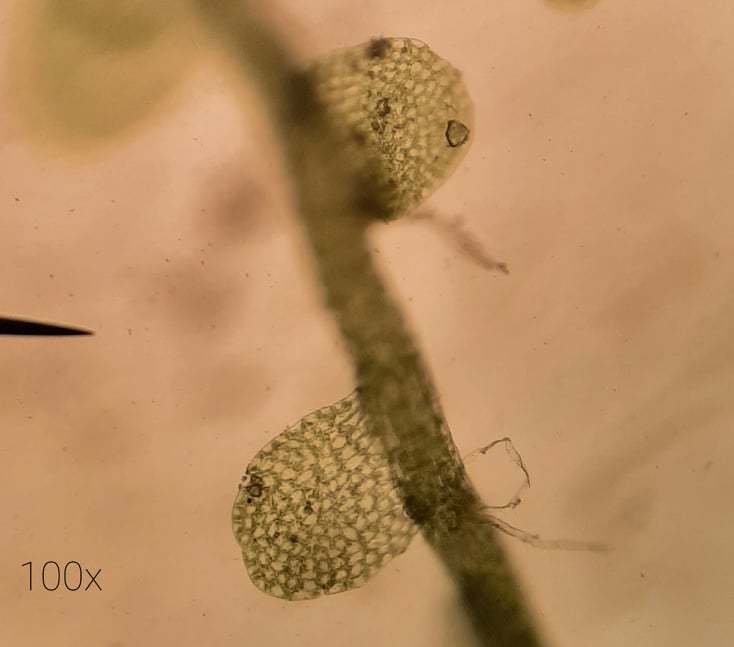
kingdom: Plantae
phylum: Marchantiophyta
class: Jungermanniopsida
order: Jungermanniales
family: Solenostomataceae
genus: Solenostoma
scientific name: Solenostoma rubrum
